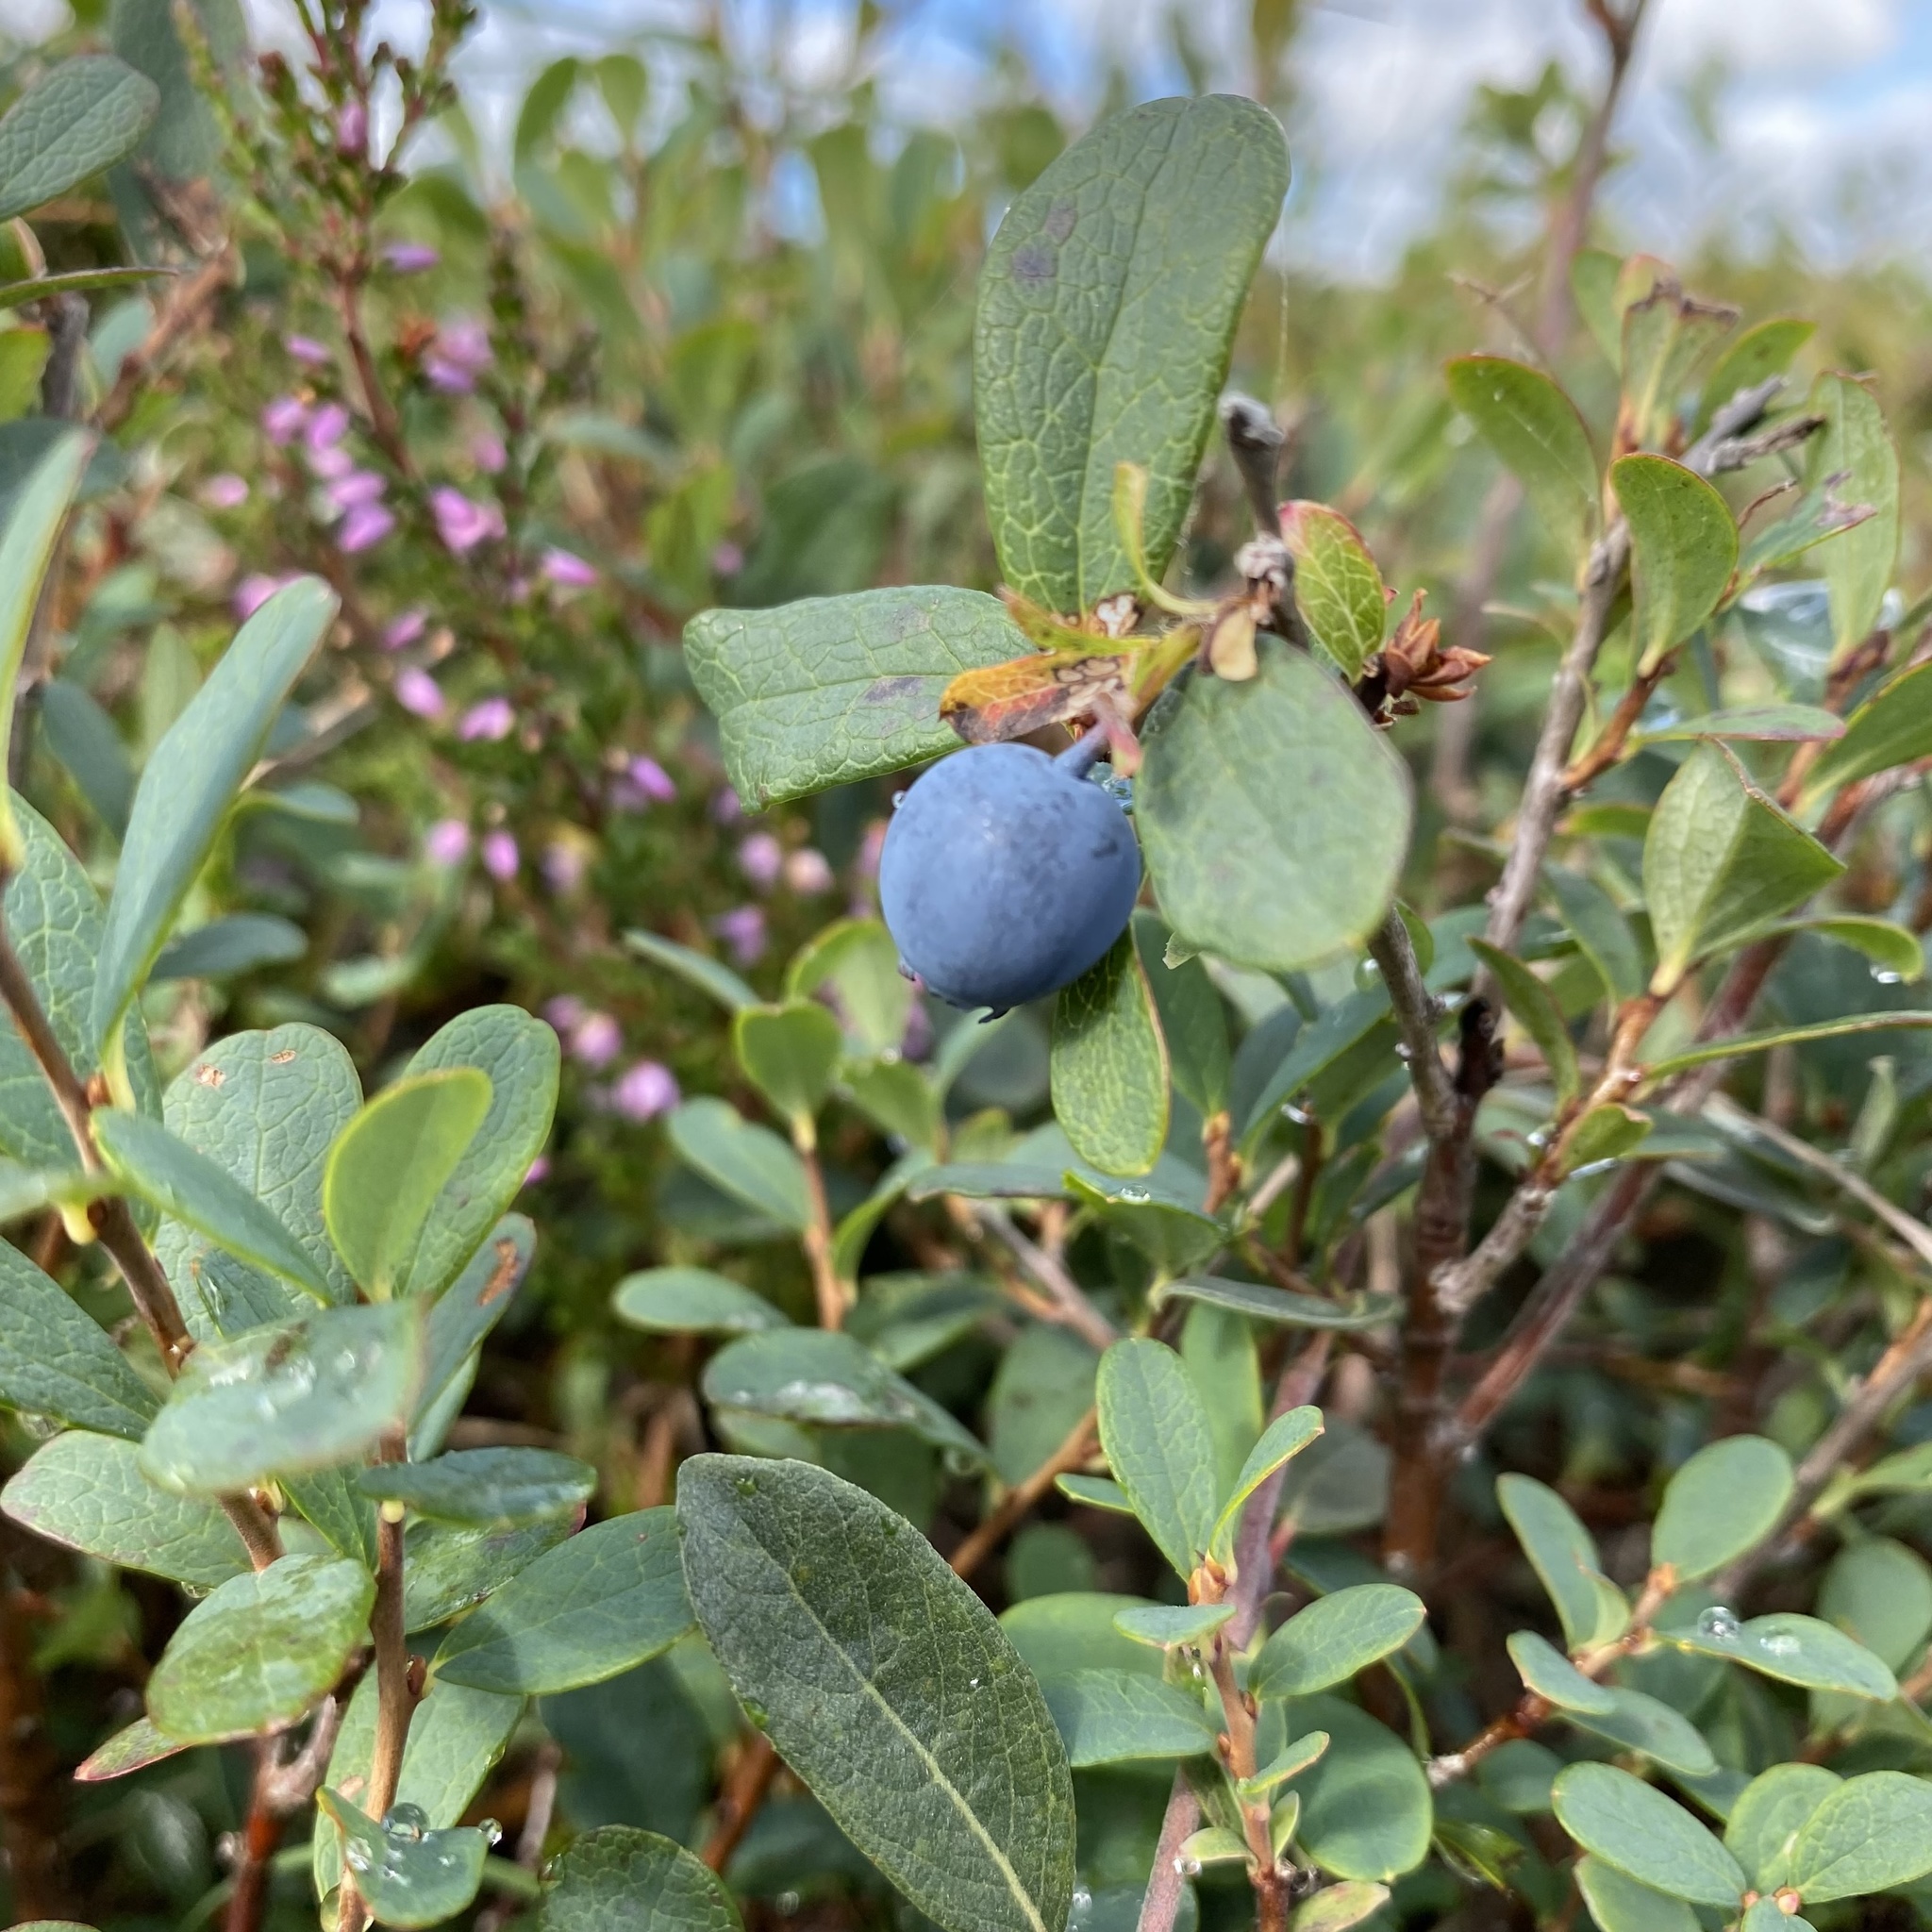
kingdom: Plantae
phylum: Tracheophyta
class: Magnoliopsida
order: Ericales
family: Ericaceae
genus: Vaccinium
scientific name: Vaccinium uliginosum
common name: Bog bilberry
